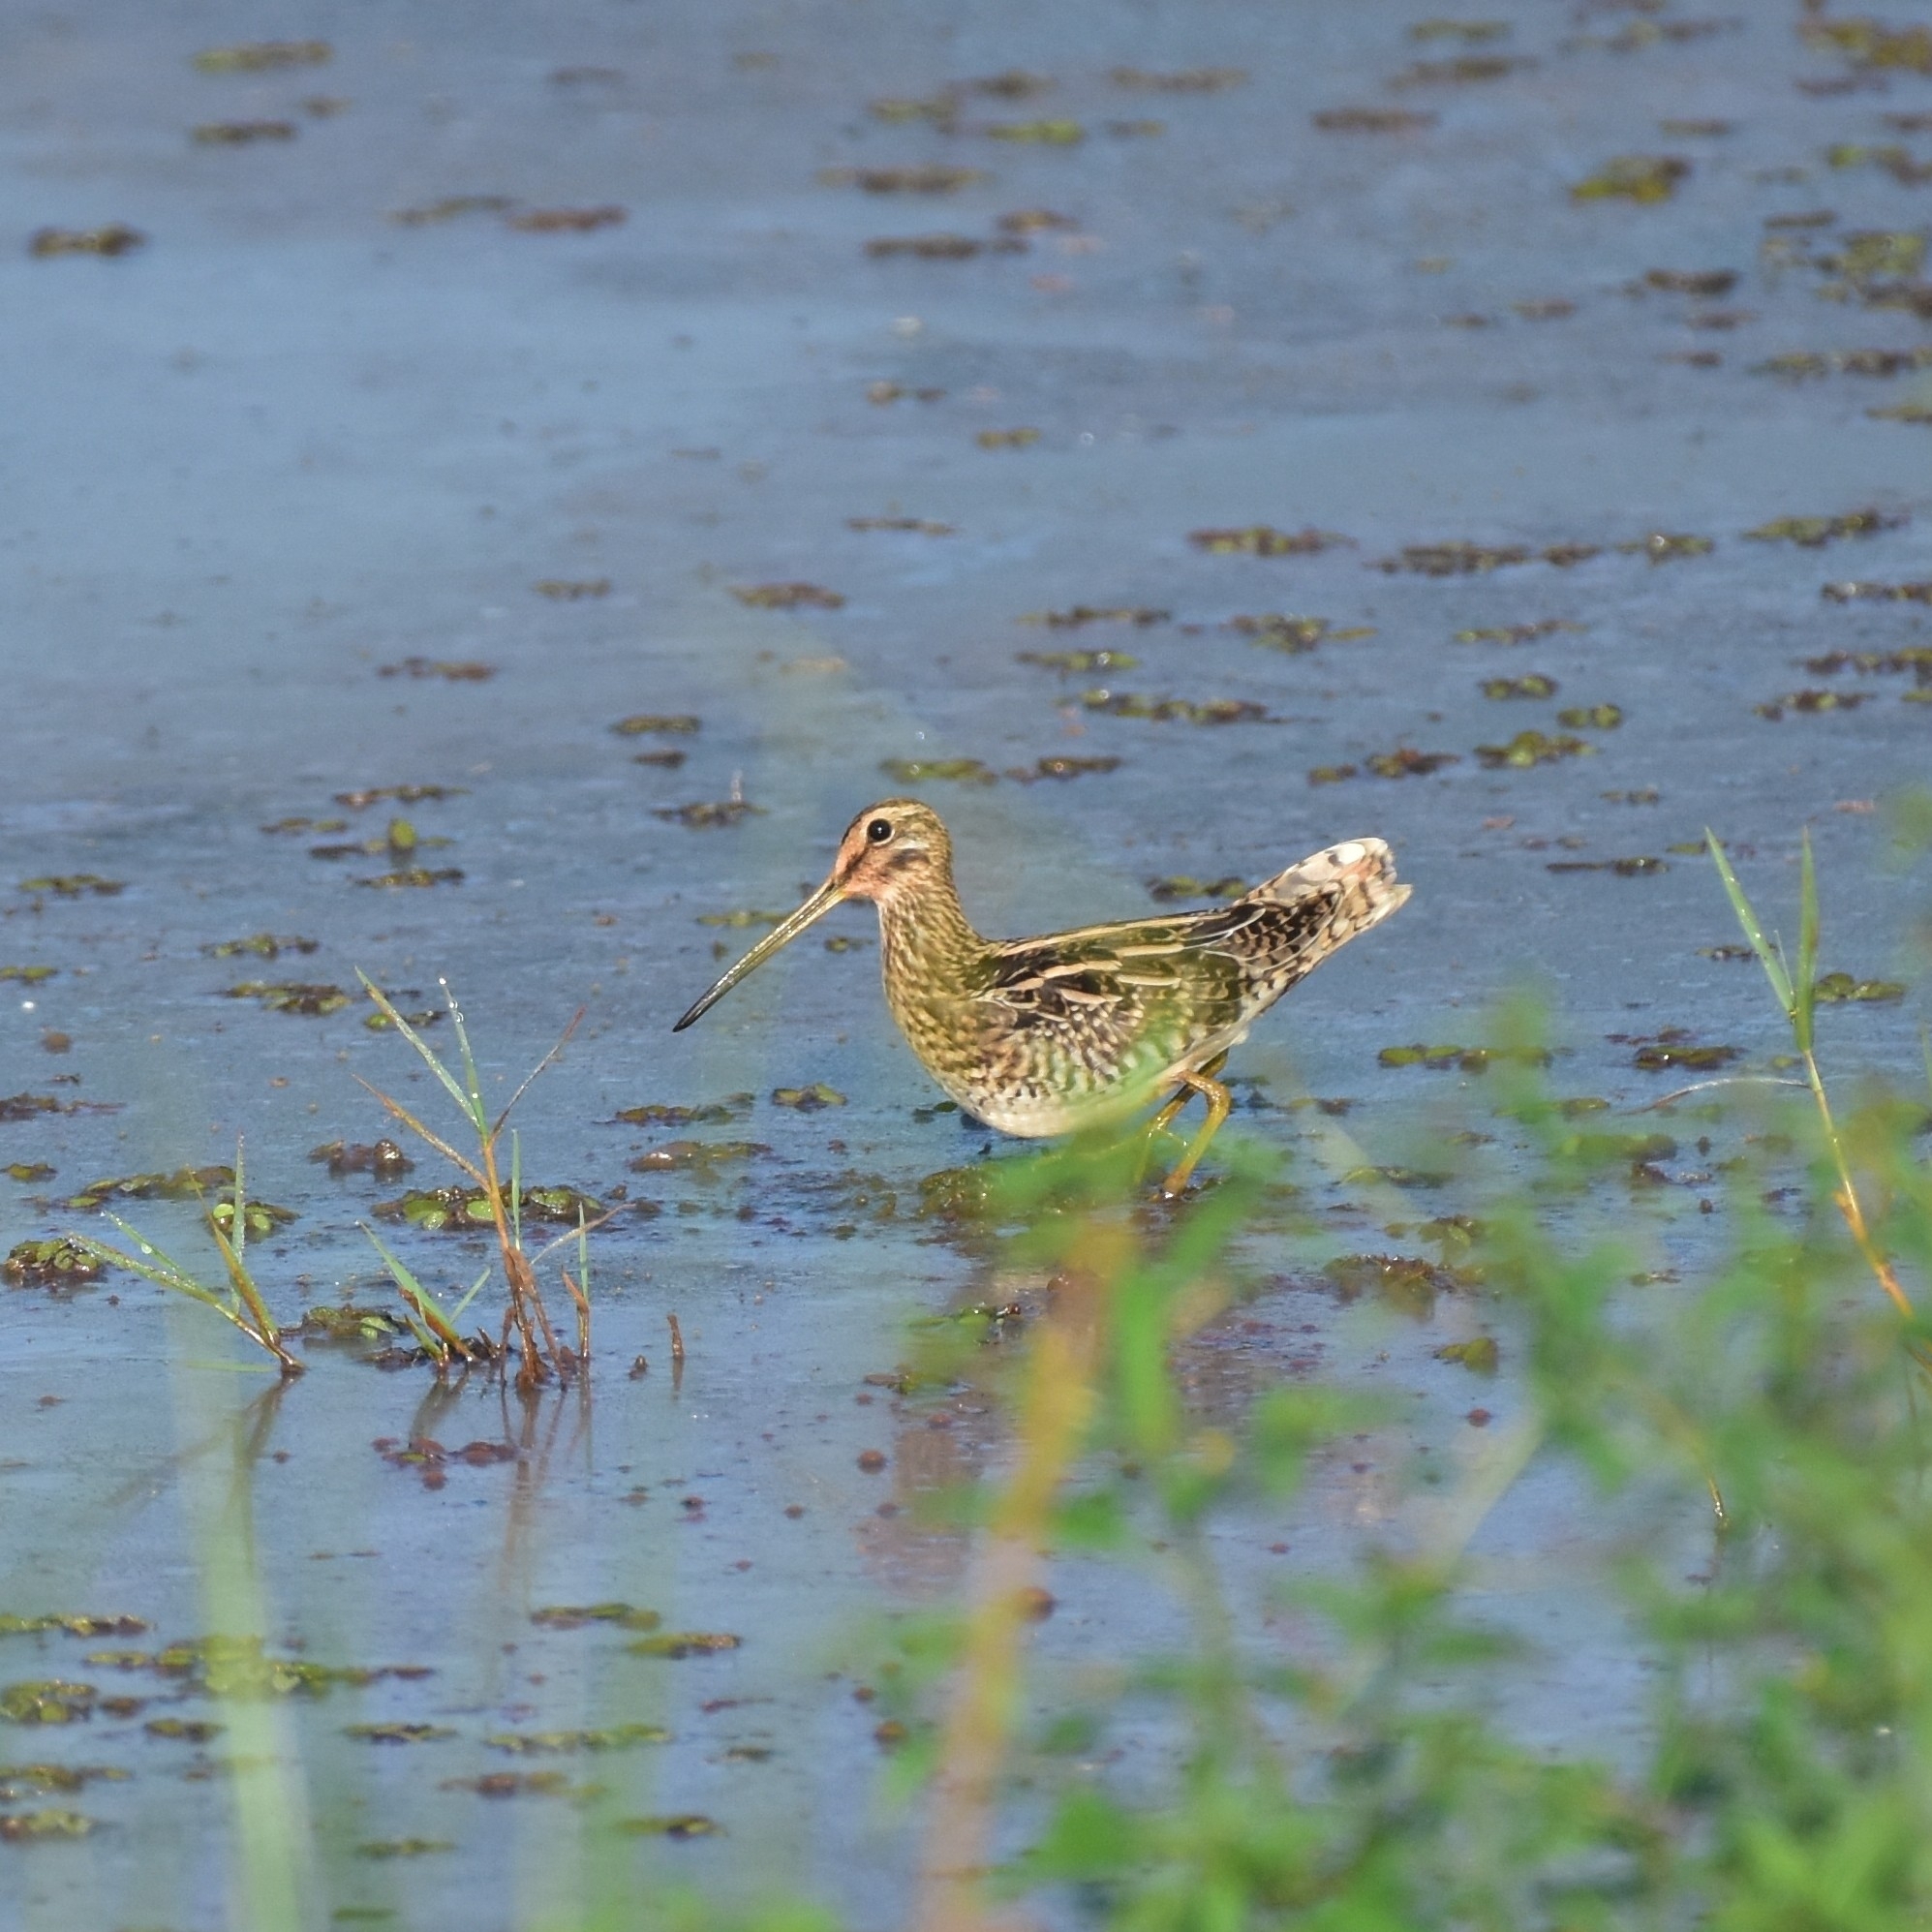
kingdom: Animalia
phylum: Chordata
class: Aves
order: Charadriiformes
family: Scolopacidae
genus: Gallinago
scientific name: Gallinago gallinago
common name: Common snipe
